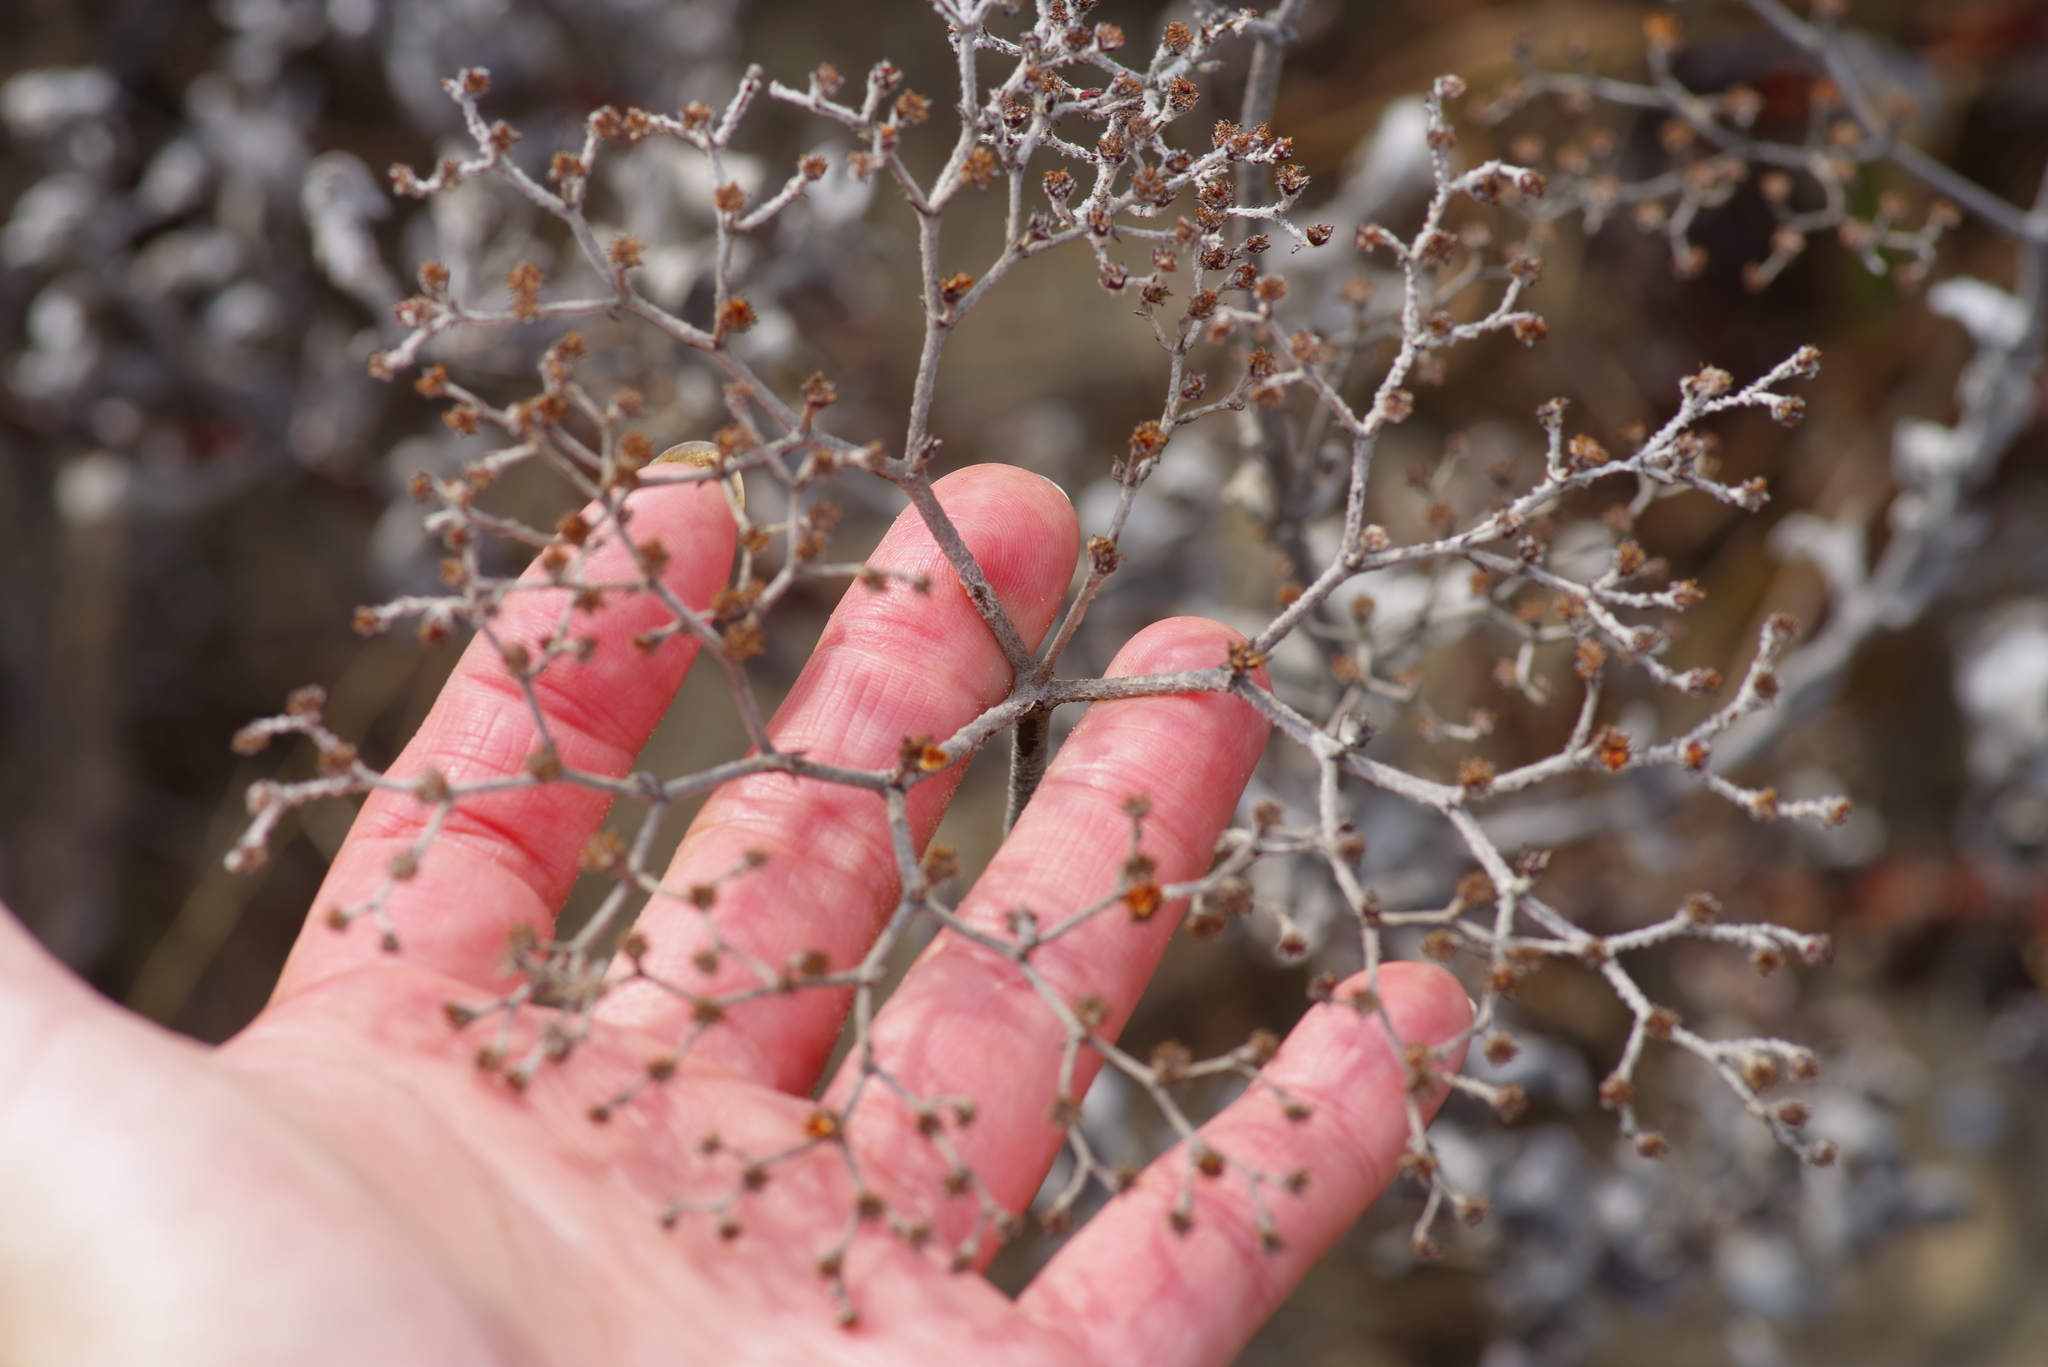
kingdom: Plantae
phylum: Tracheophyta
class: Magnoliopsida
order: Caryophyllales
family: Polygonaceae
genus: Eriogonum
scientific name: Eriogonum multiflorum
